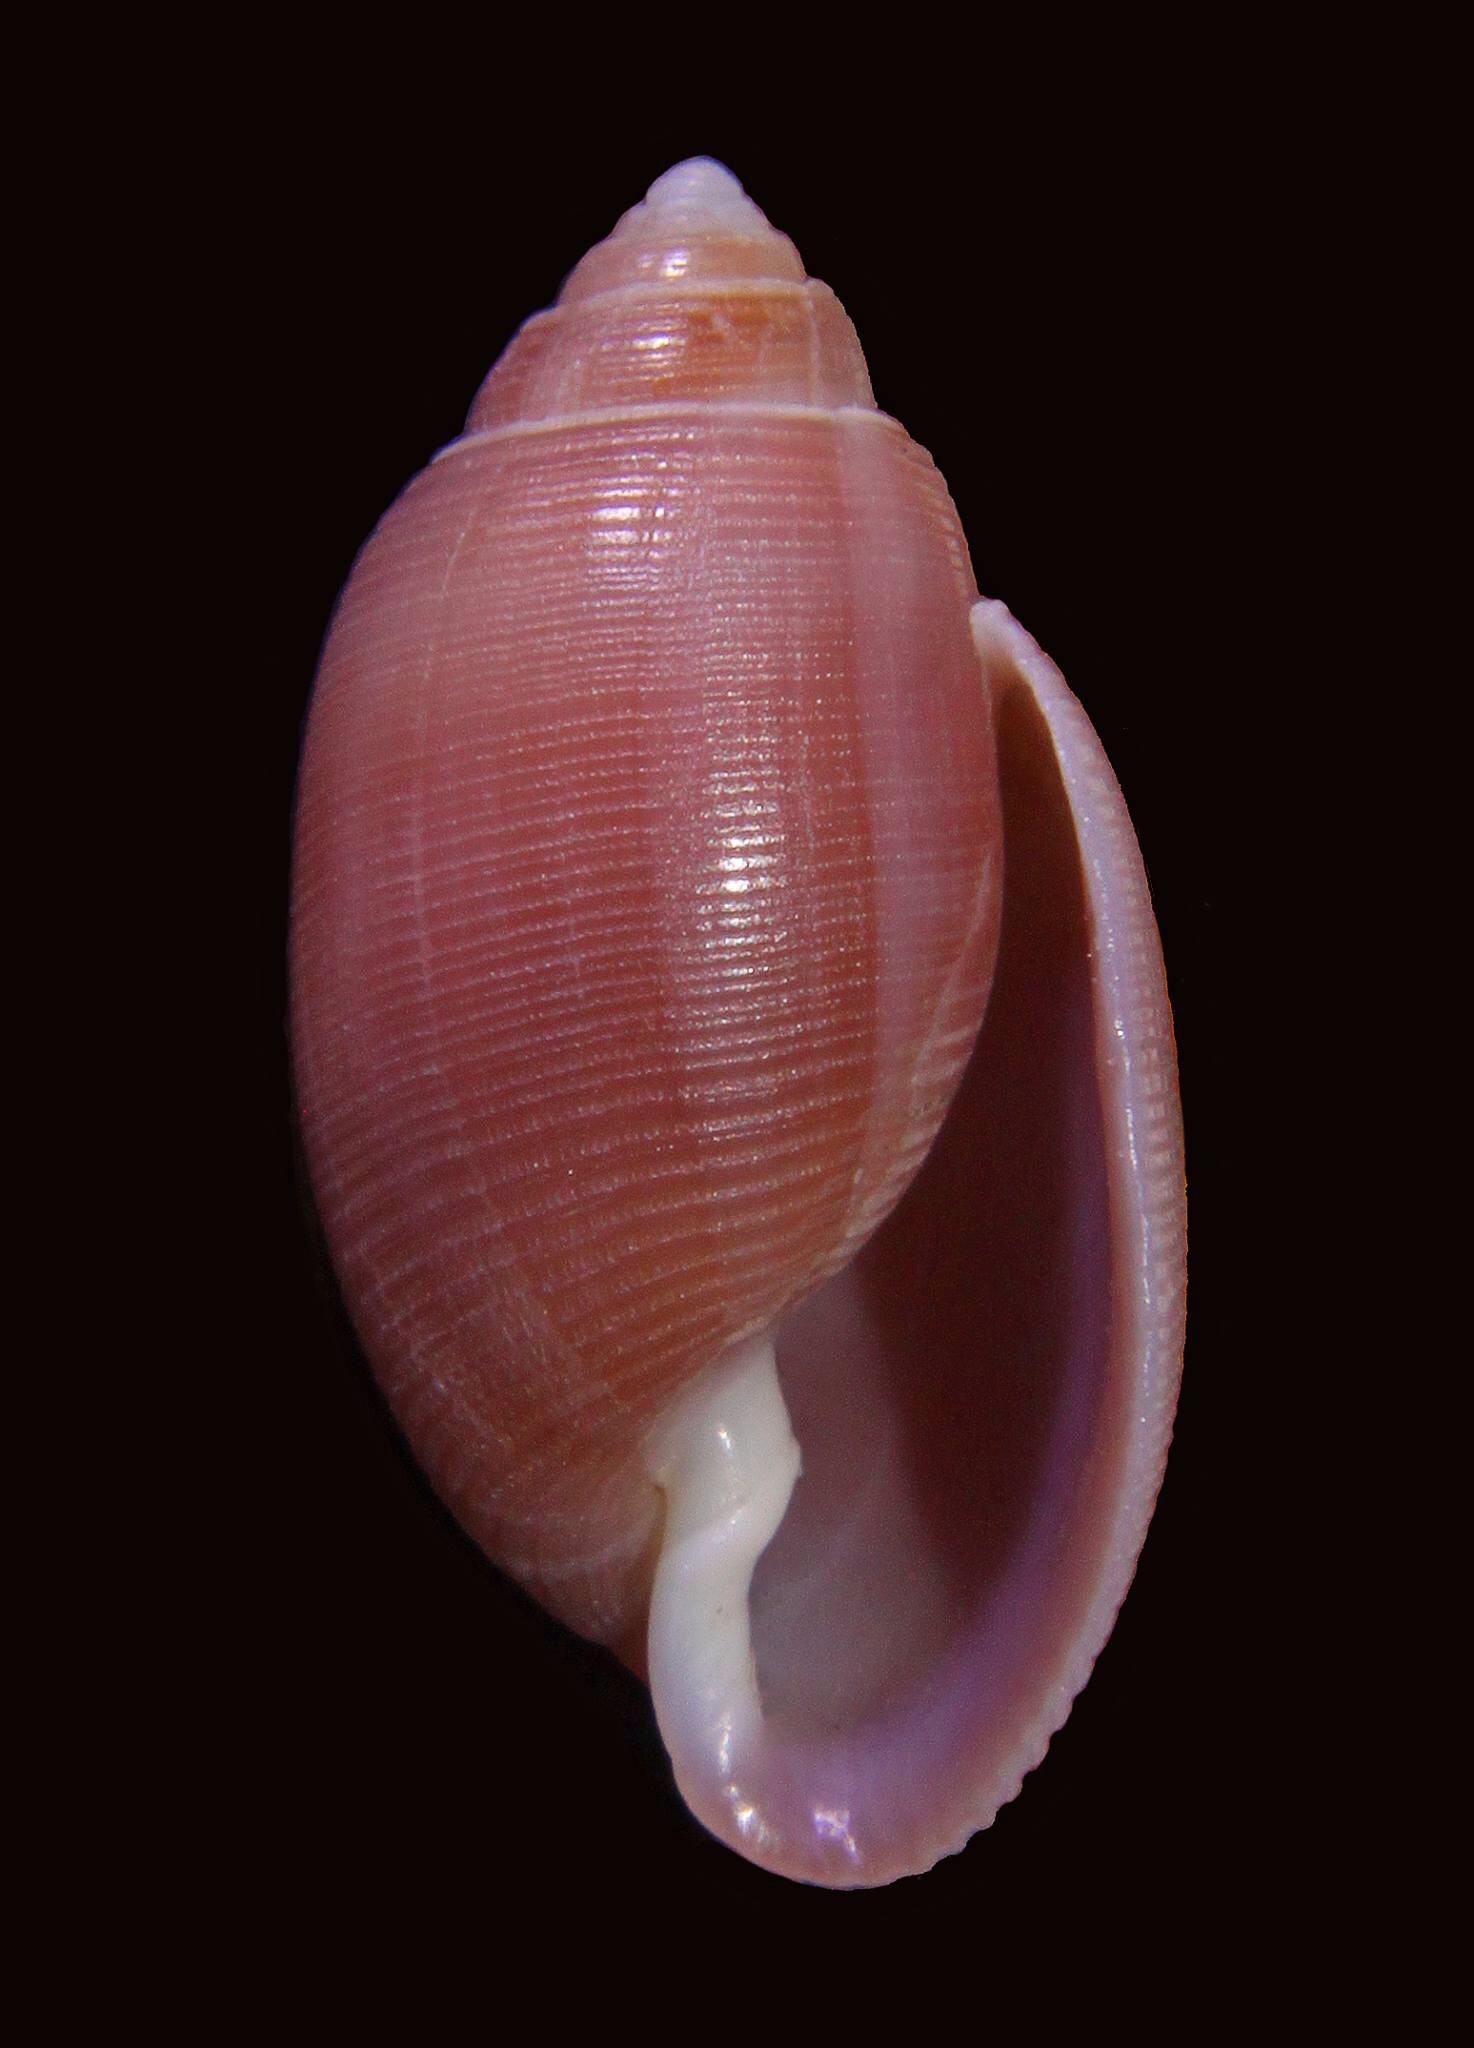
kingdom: Animalia
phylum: Mollusca
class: Gastropoda
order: Cephalaspidea
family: Acteonidae
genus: Acteon
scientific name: Acteon tornatilis
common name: European acteon
